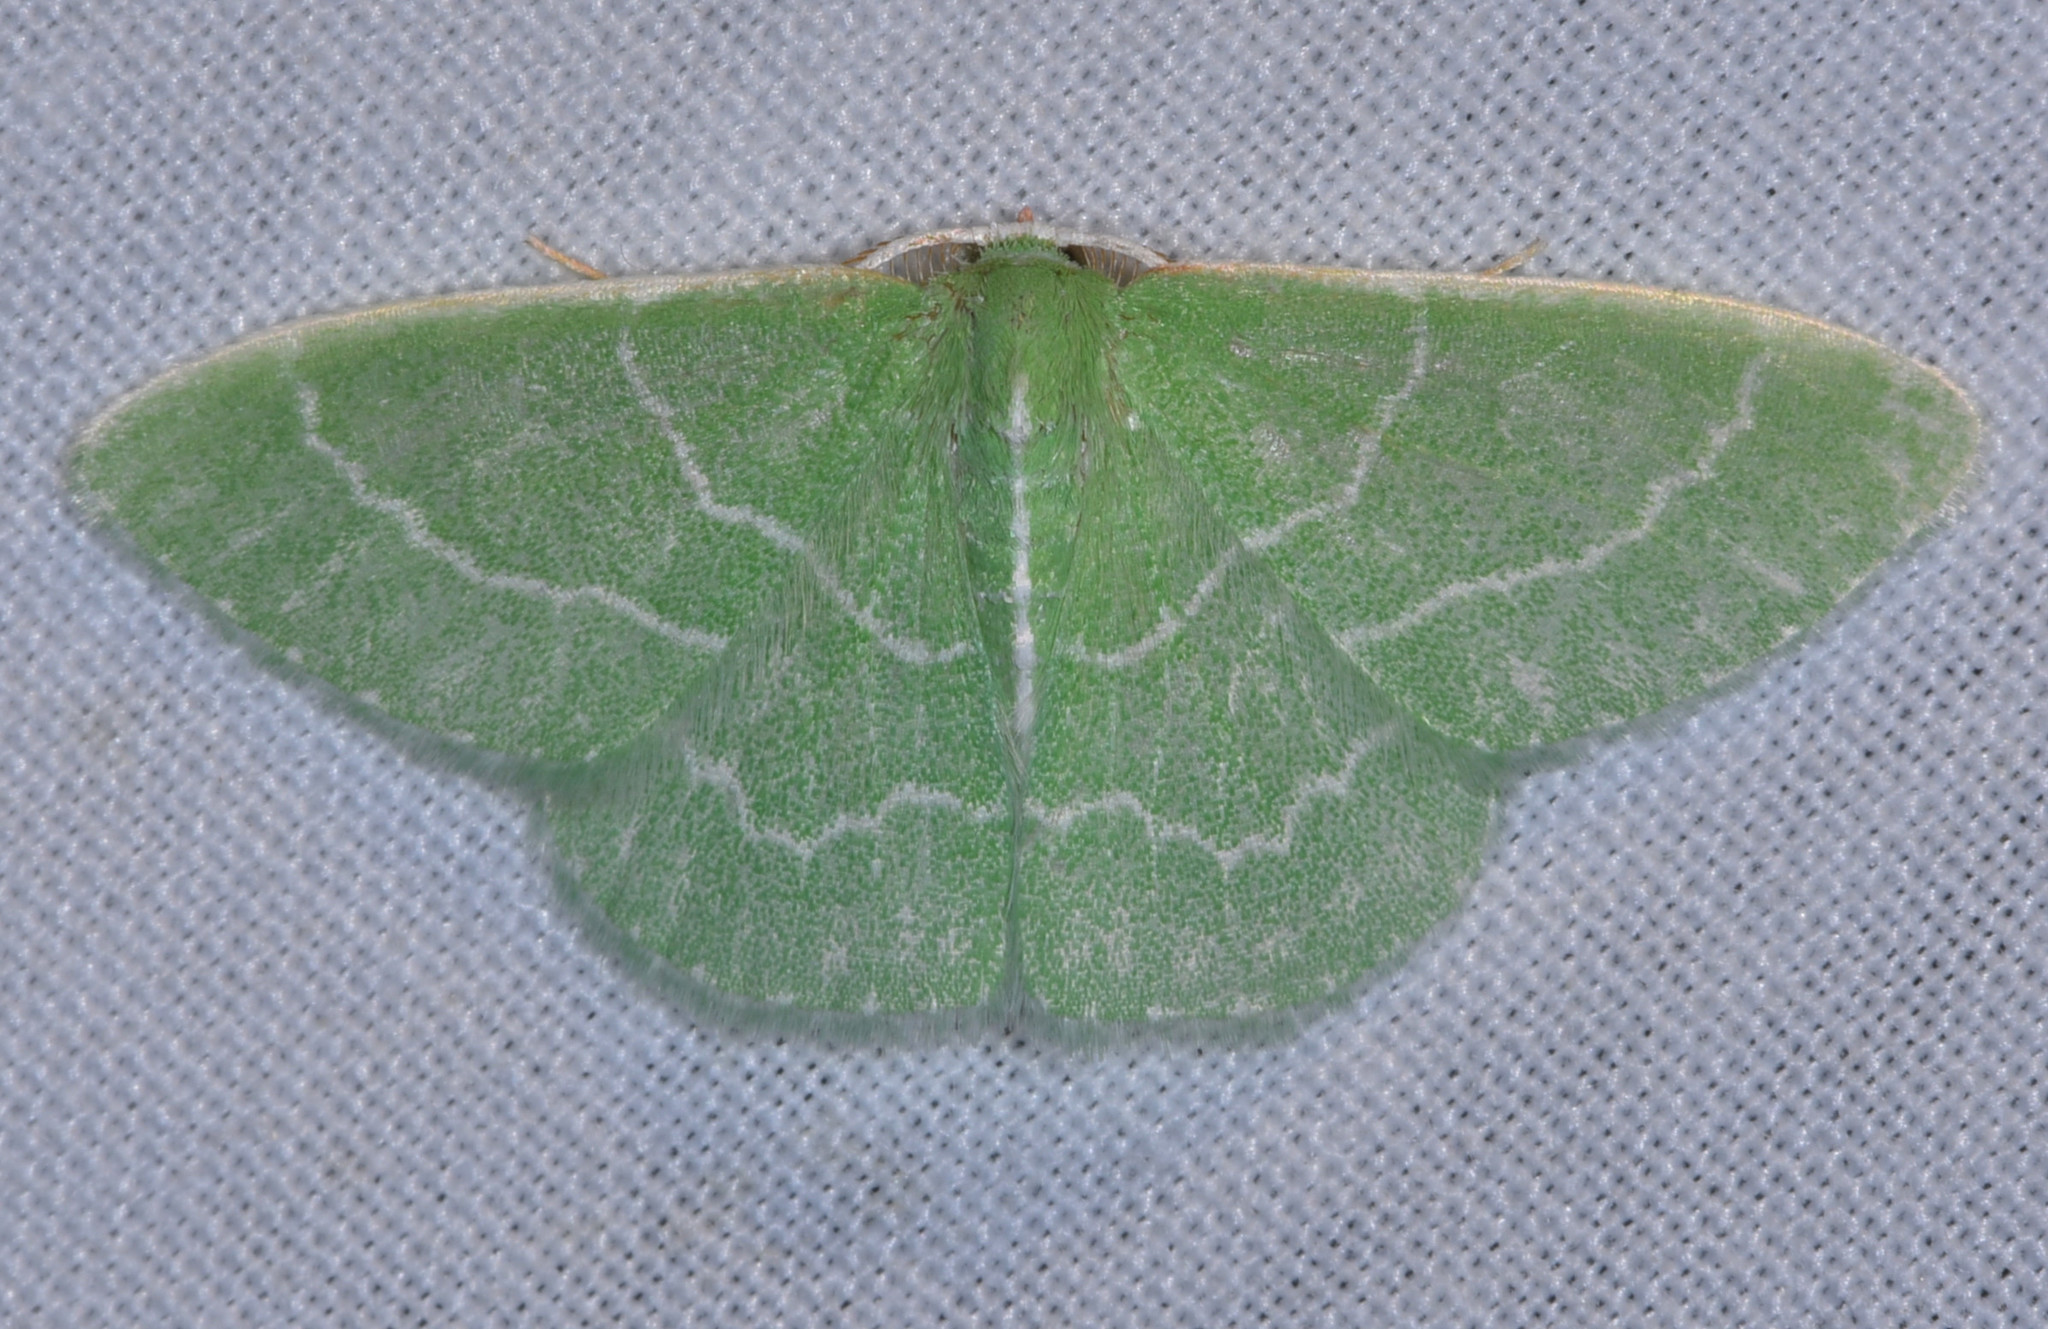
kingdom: Animalia
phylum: Arthropoda
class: Insecta
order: Lepidoptera
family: Geometridae
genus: Synchlora
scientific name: Synchlora aerata
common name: Wavy-lined emerald
